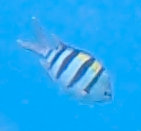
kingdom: Animalia
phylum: Chordata
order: Perciformes
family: Pomacentridae
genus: Abudefduf
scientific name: Abudefduf vaigiensis
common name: Indo-pacific sergeant
